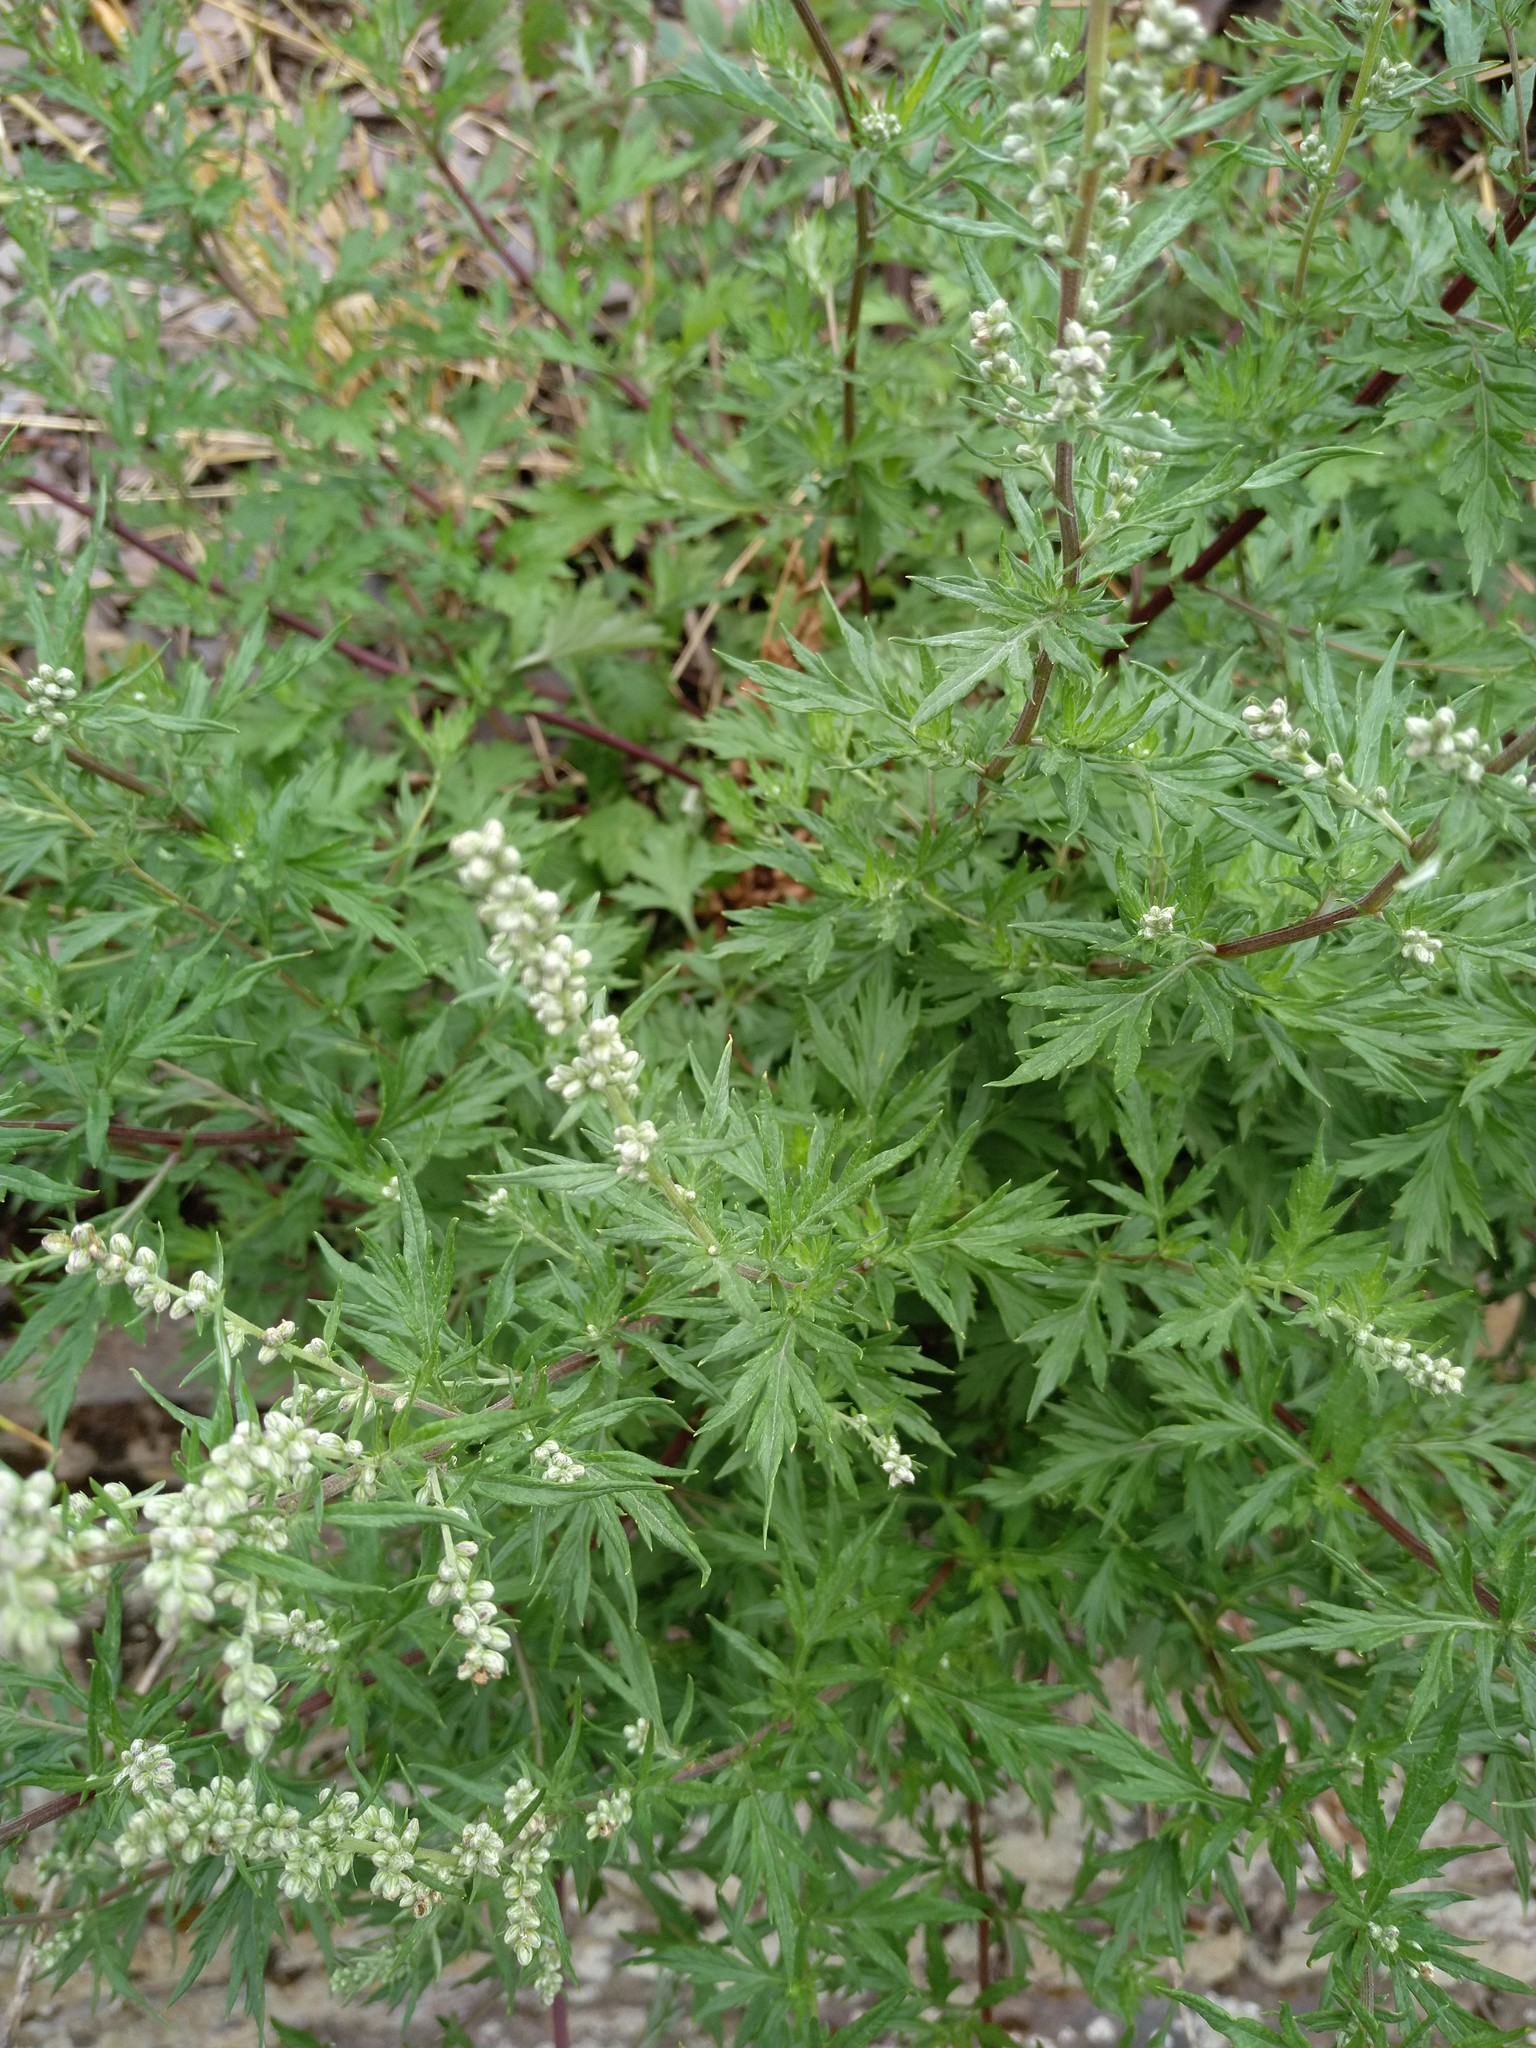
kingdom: Plantae
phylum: Tracheophyta
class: Magnoliopsida
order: Asterales
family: Asteraceae
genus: Artemisia
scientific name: Artemisia vulgaris
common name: Mugwort
